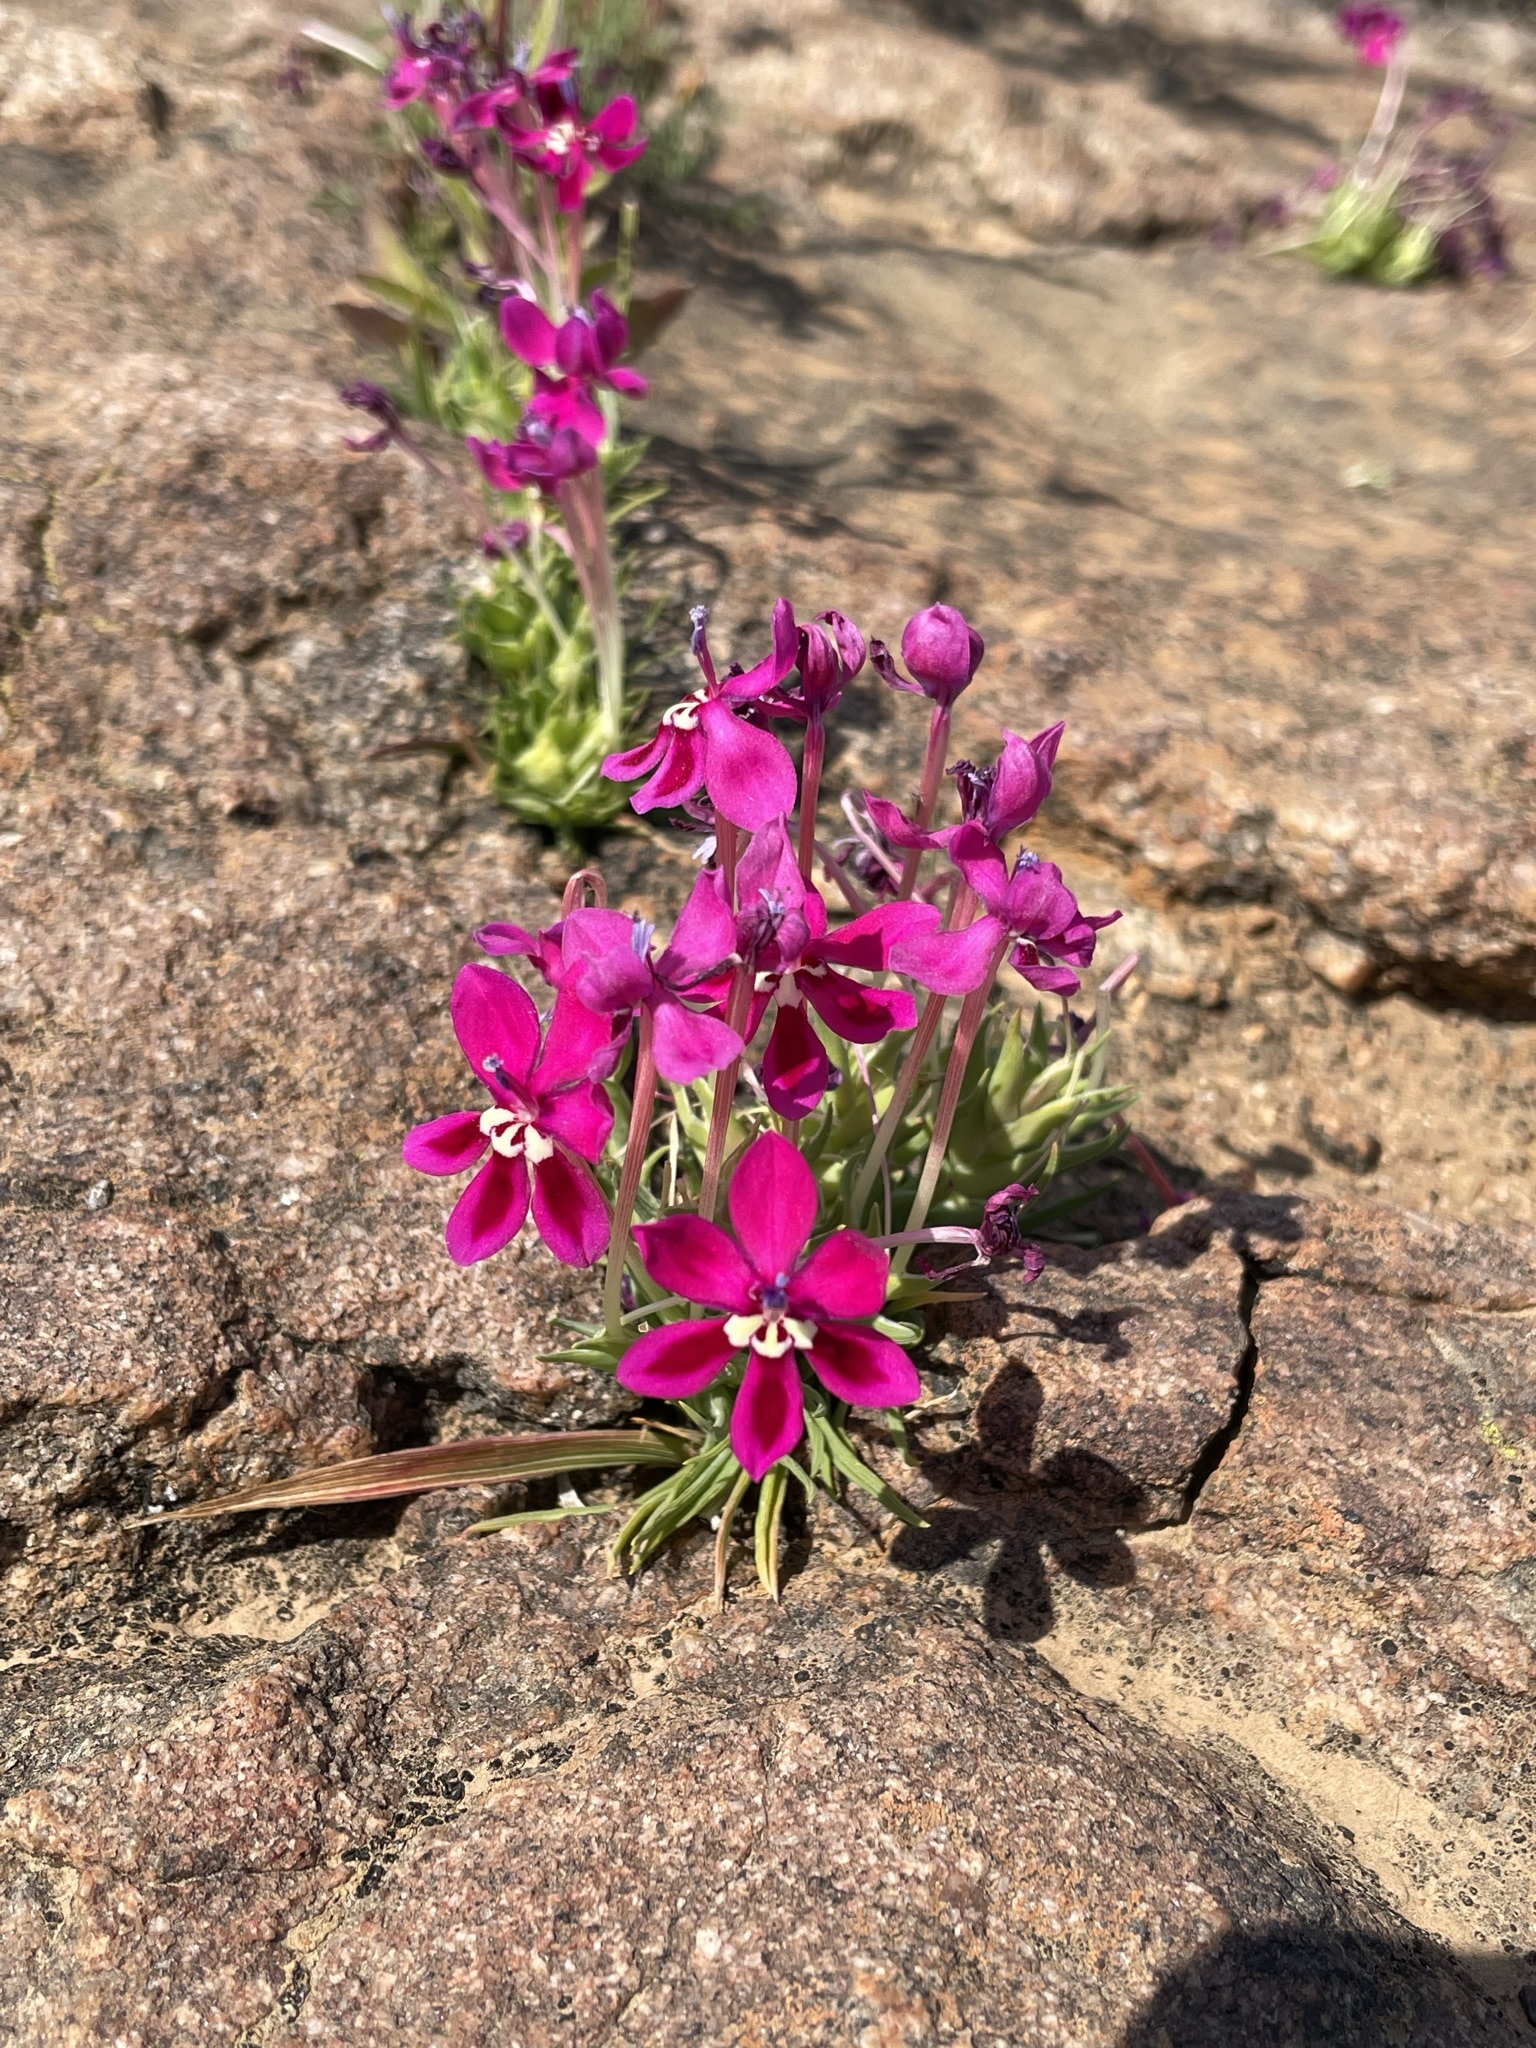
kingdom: Plantae
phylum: Tracheophyta
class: Liliopsida
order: Asparagales
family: Iridaceae
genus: Lapeirousia
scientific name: Lapeirousia silenoides
